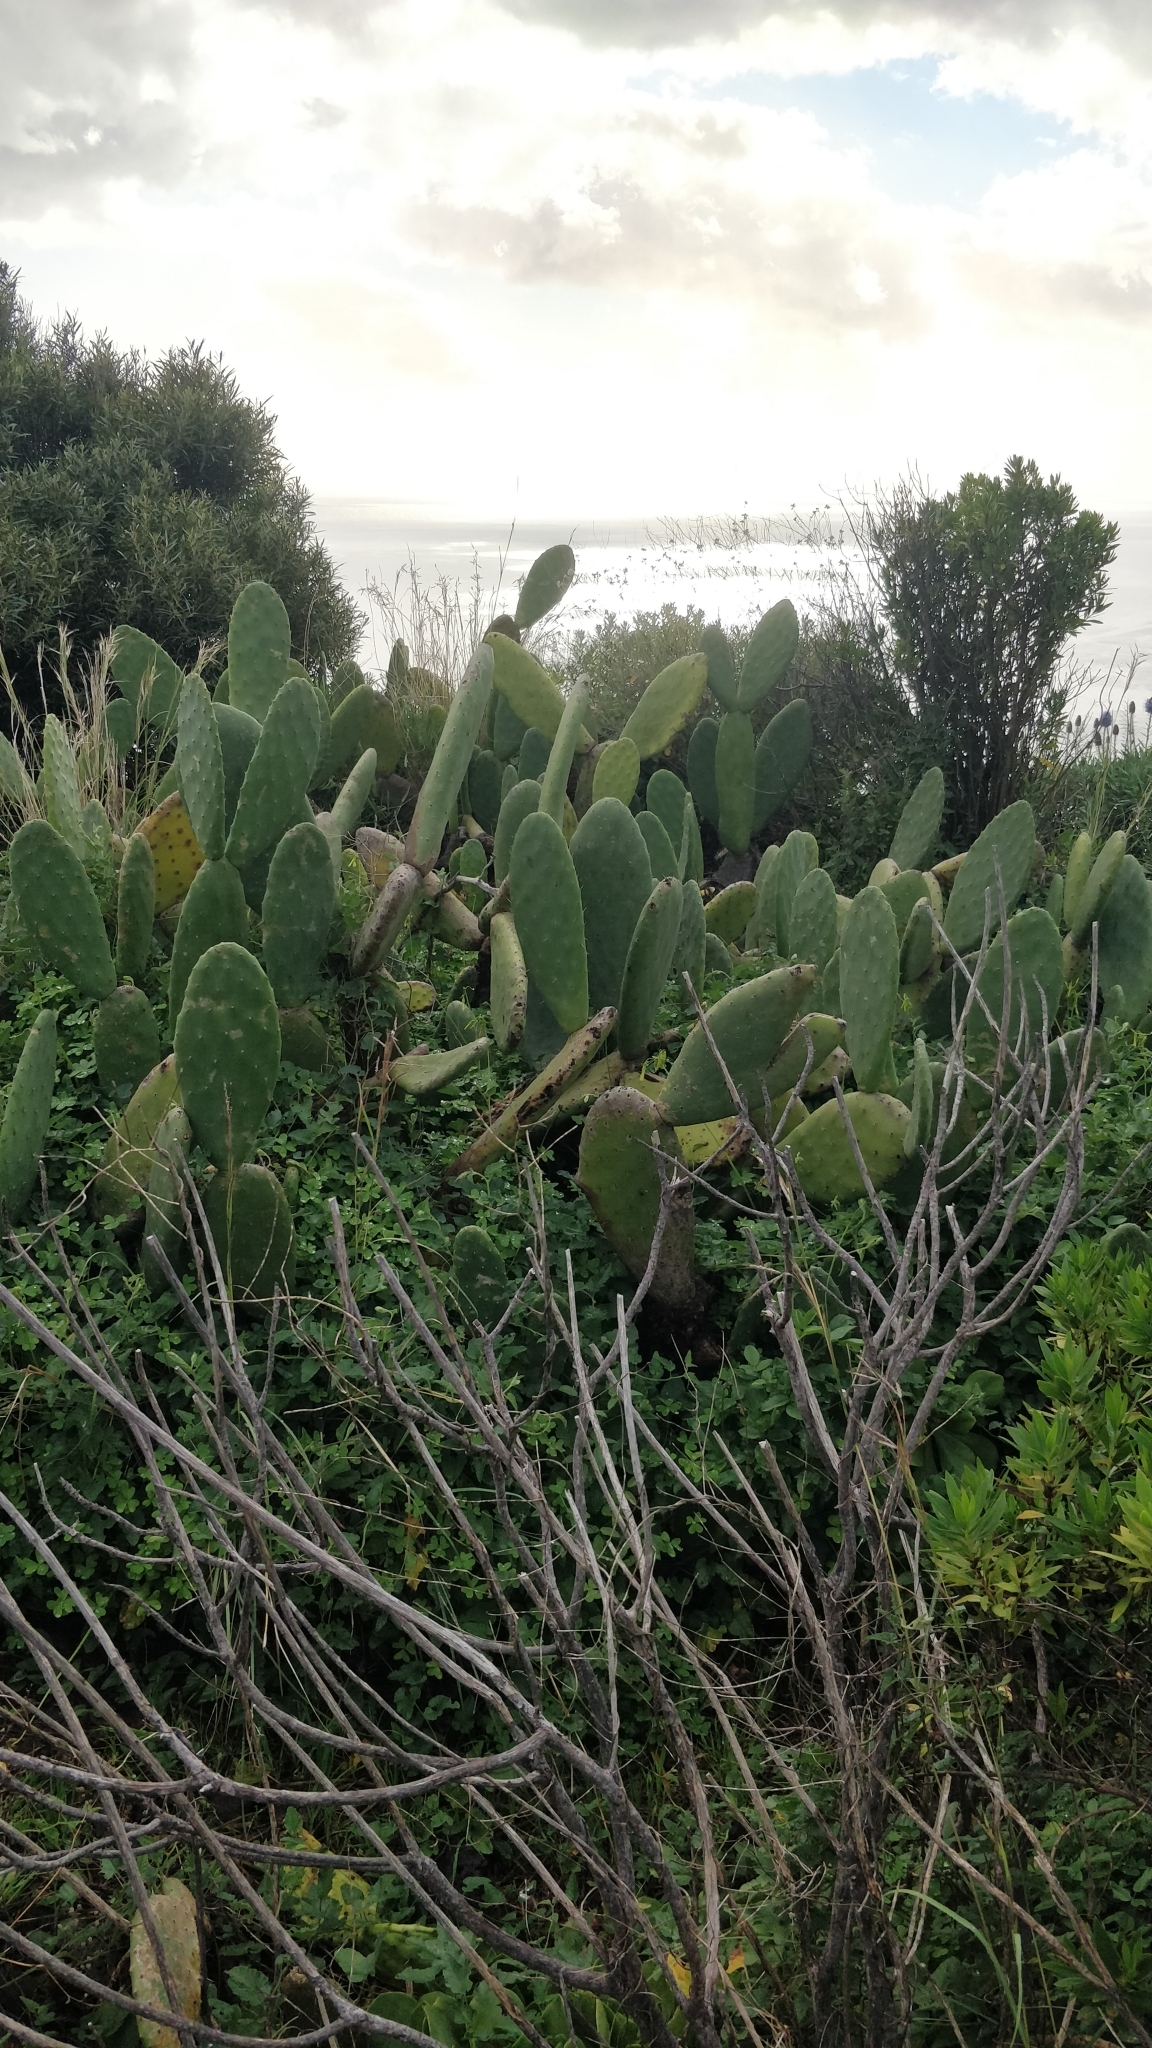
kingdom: Plantae
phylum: Tracheophyta
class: Magnoliopsida
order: Caryophyllales
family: Cactaceae
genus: Opuntia
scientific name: Opuntia ficus-indica
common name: Barbary fig
